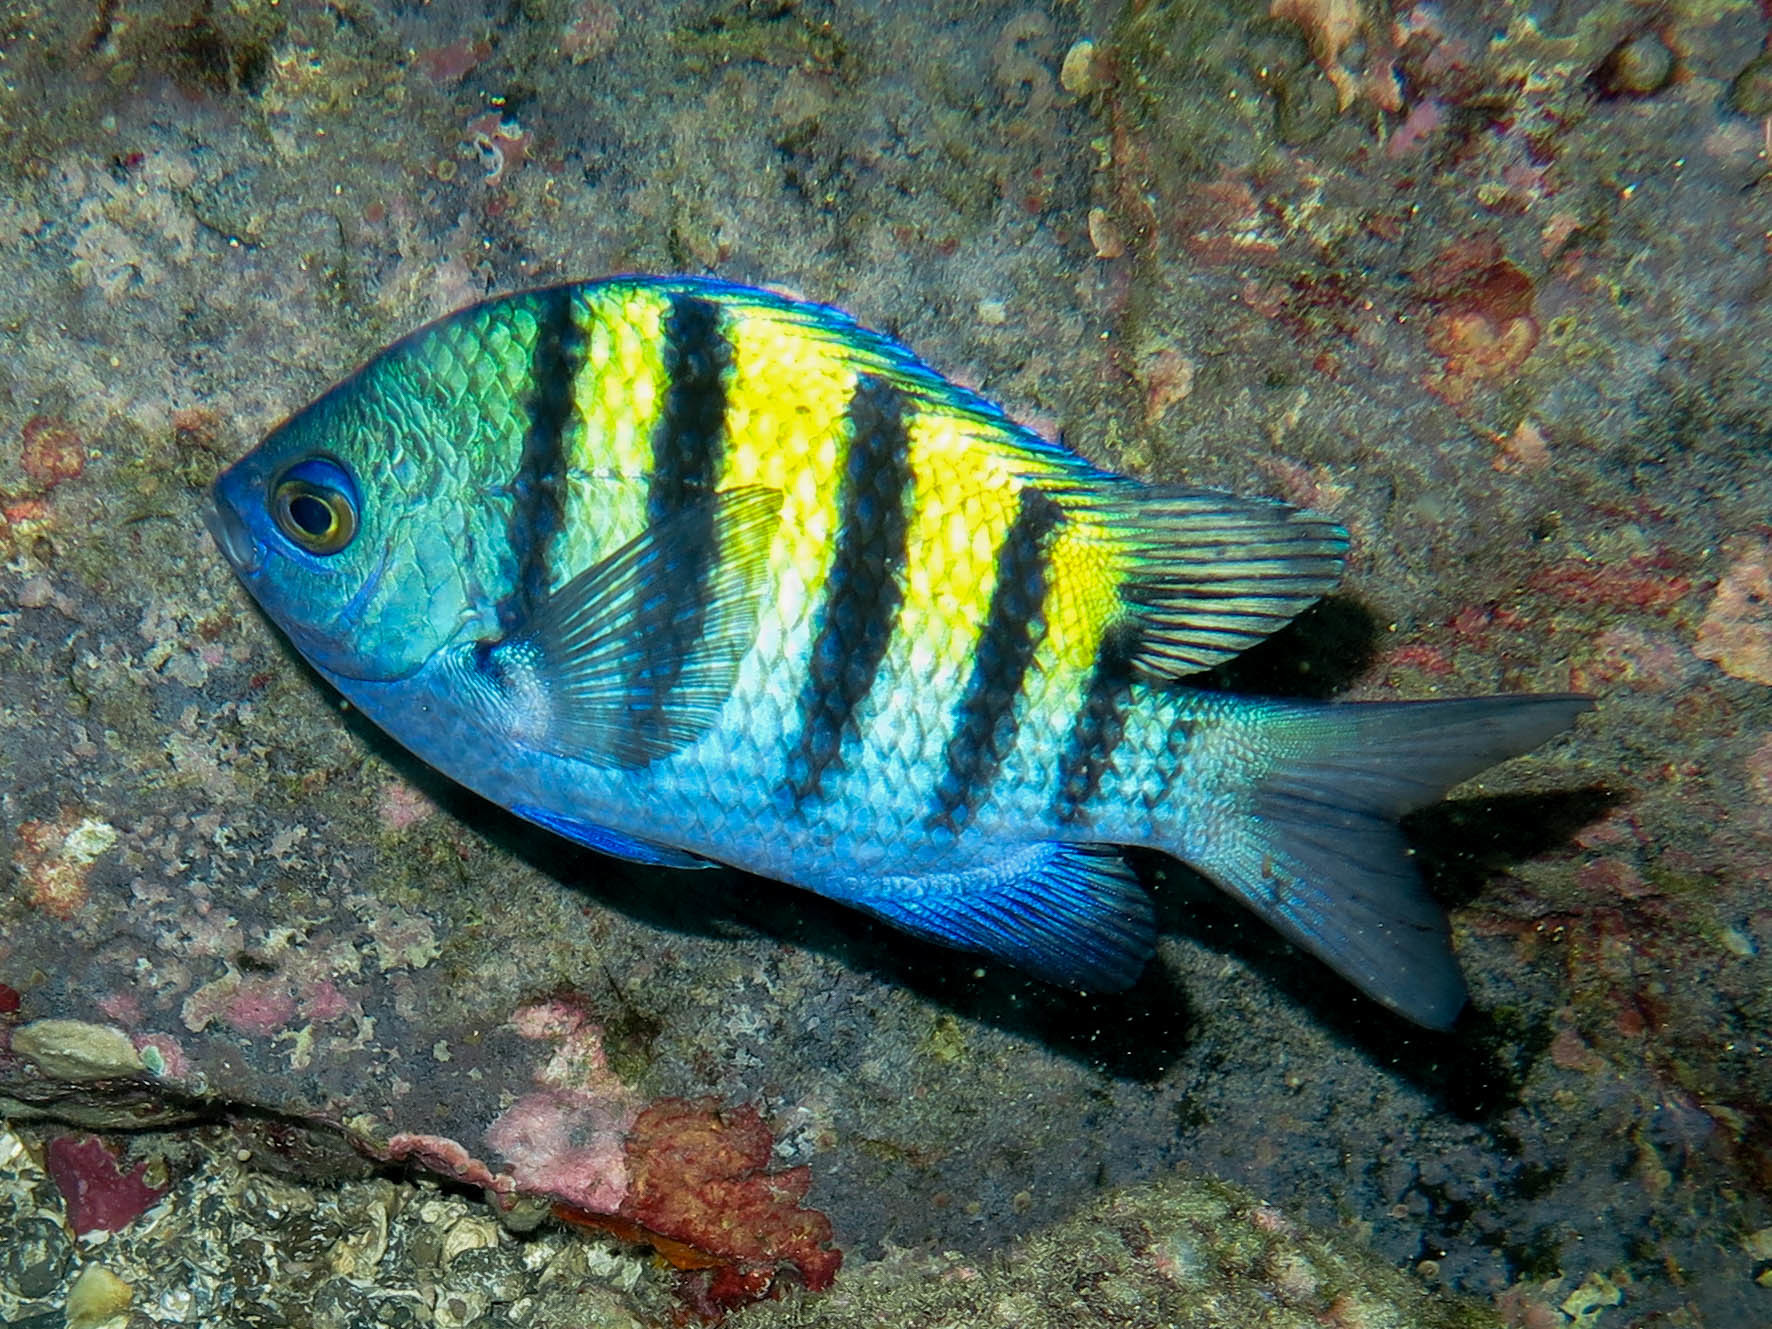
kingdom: Animalia
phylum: Chordata
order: Perciformes
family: Pomacentridae
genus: Abudefduf
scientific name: Abudefduf troschelii
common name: Panamic sergeant major
